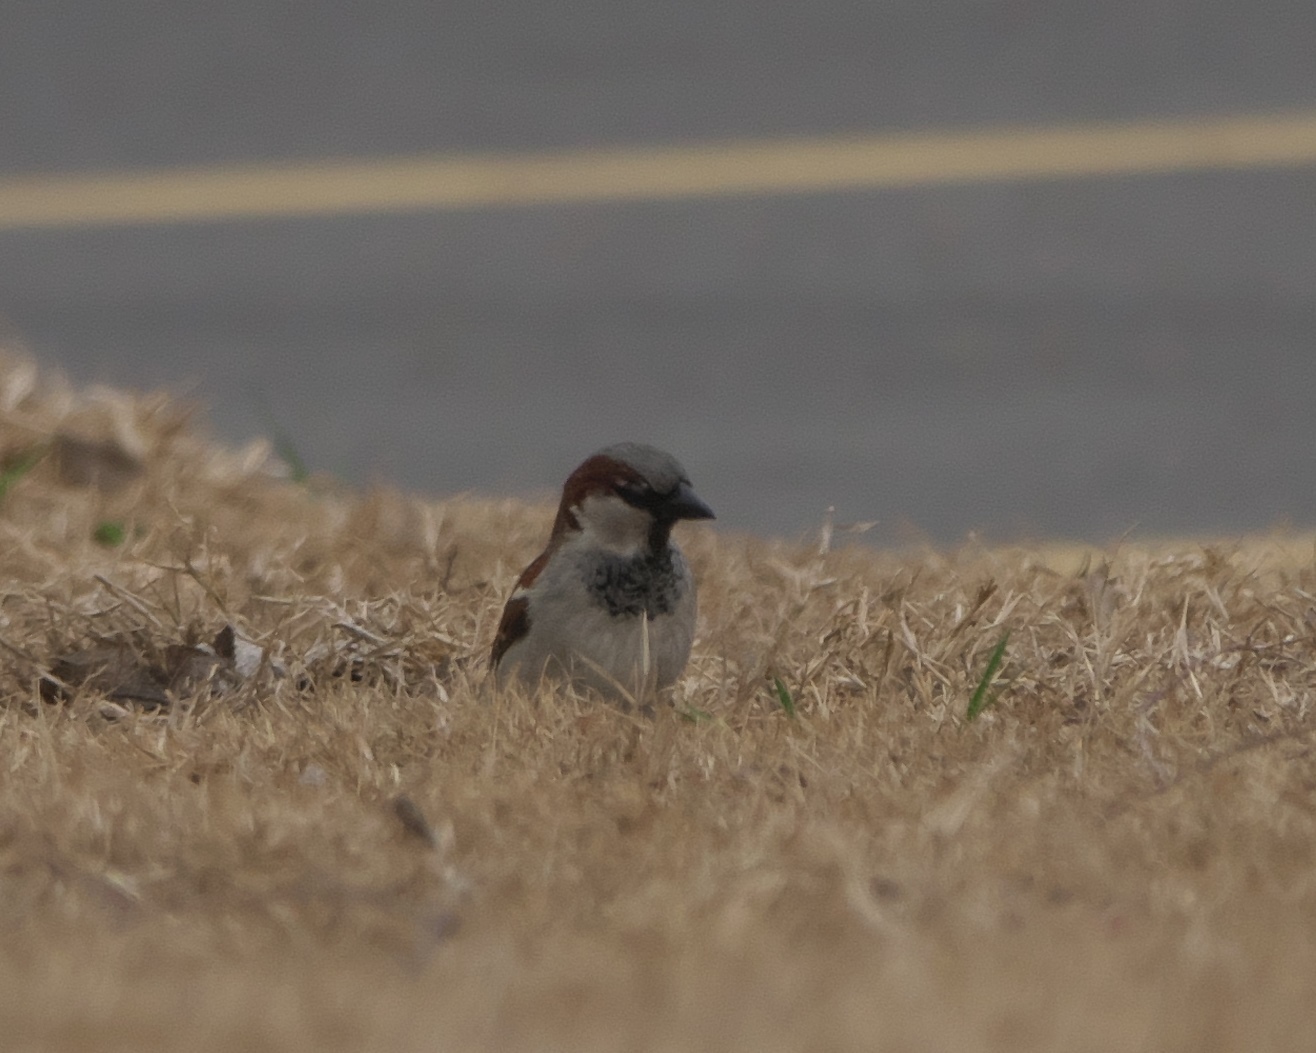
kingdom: Animalia
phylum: Chordata
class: Aves
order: Passeriformes
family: Passeridae
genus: Passer
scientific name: Passer domesticus
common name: House sparrow
